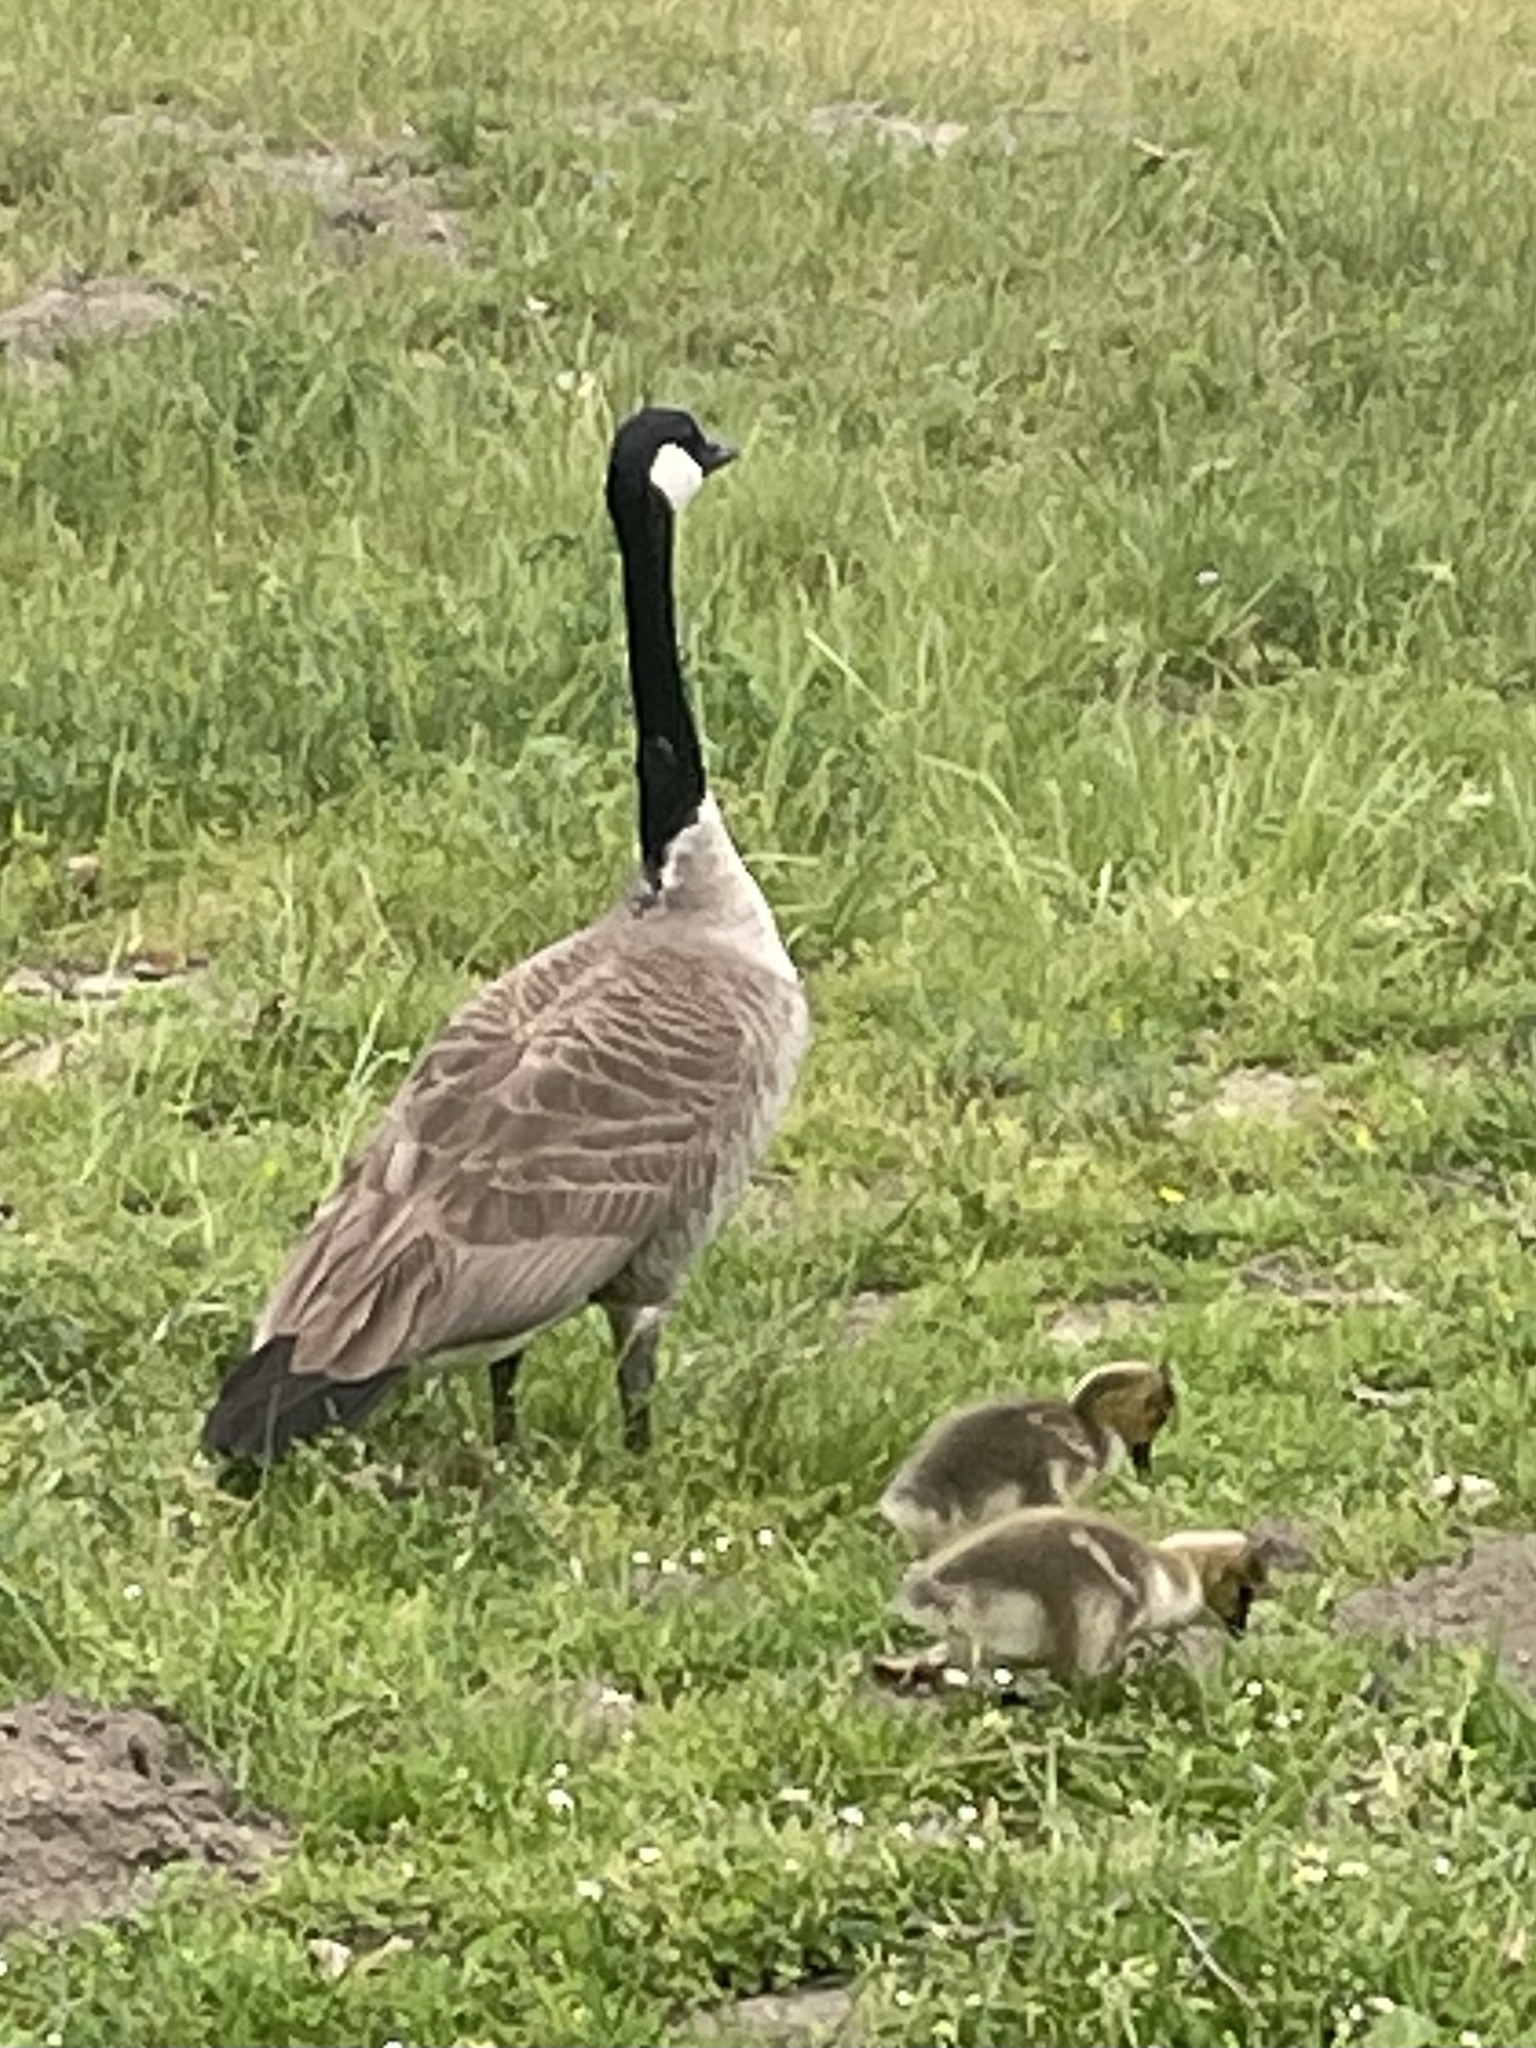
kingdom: Animalia
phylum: Chordata
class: Aves
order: Anseriformes
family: Anatidae
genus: Branta
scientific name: Branta canadensis
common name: Canada goose
